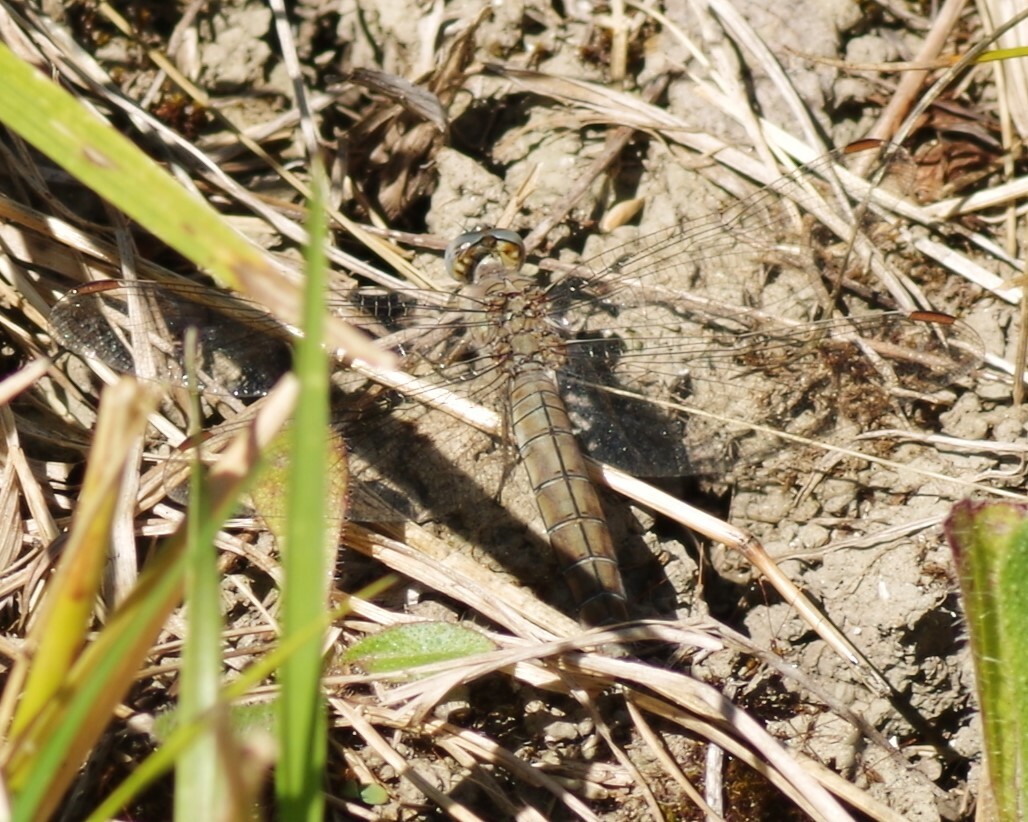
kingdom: Animalia
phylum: Arthropoda
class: Insecta
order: Odonata
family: Libellulidae
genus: Orthetrum
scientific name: Orthetrum brunneum
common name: Southern skimmer
